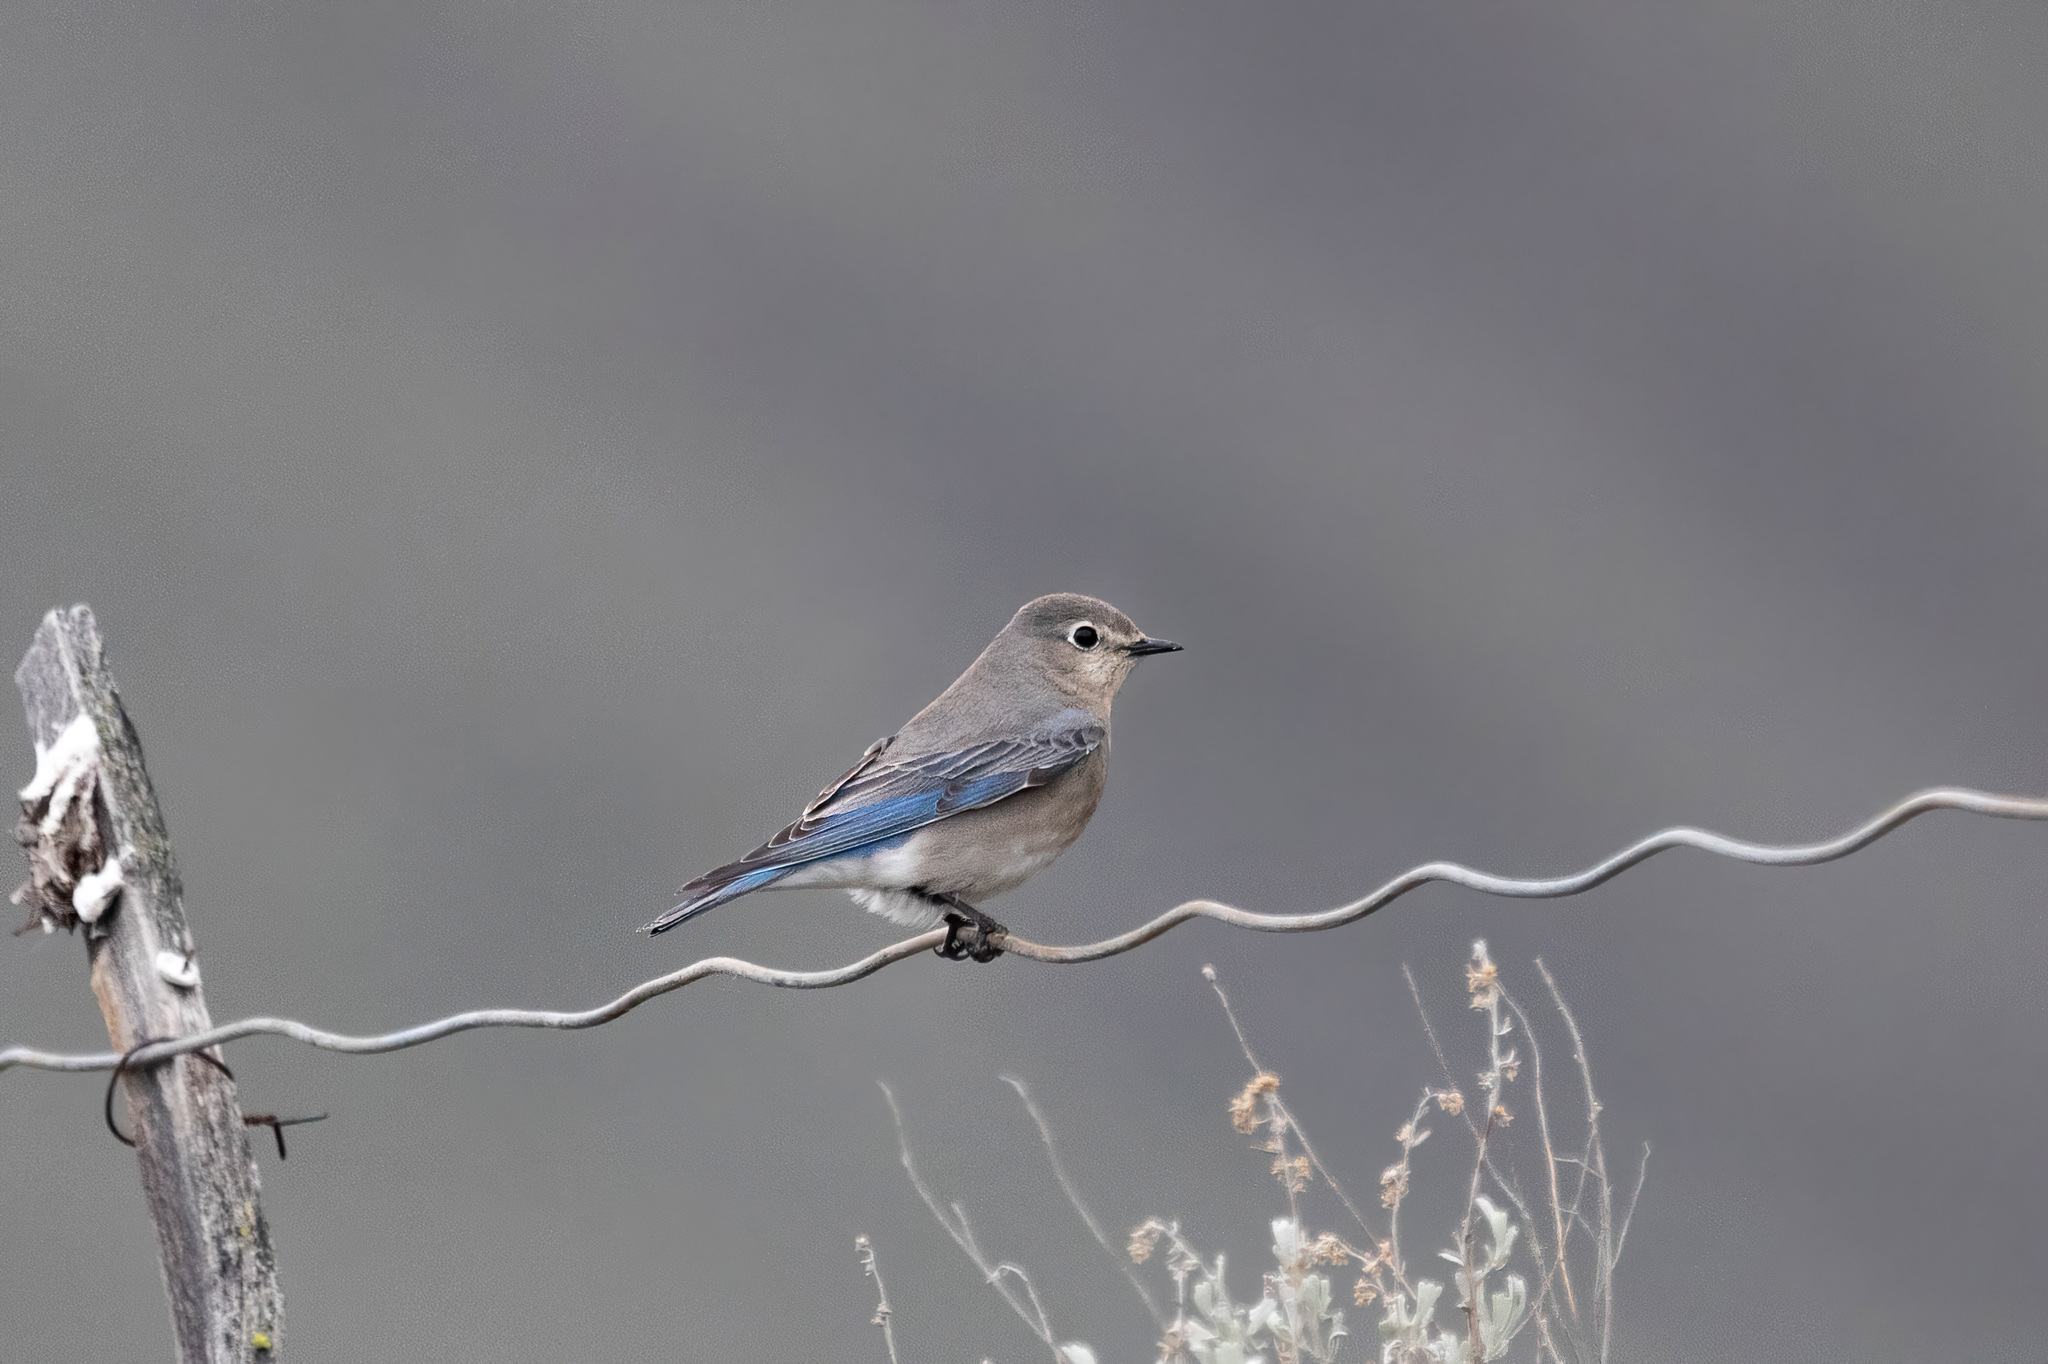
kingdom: Animalia
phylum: Chordata
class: Aves
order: Passeriformes
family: Turdidae
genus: Sialia
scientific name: Sialia currucoides
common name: Mountain bluebird
